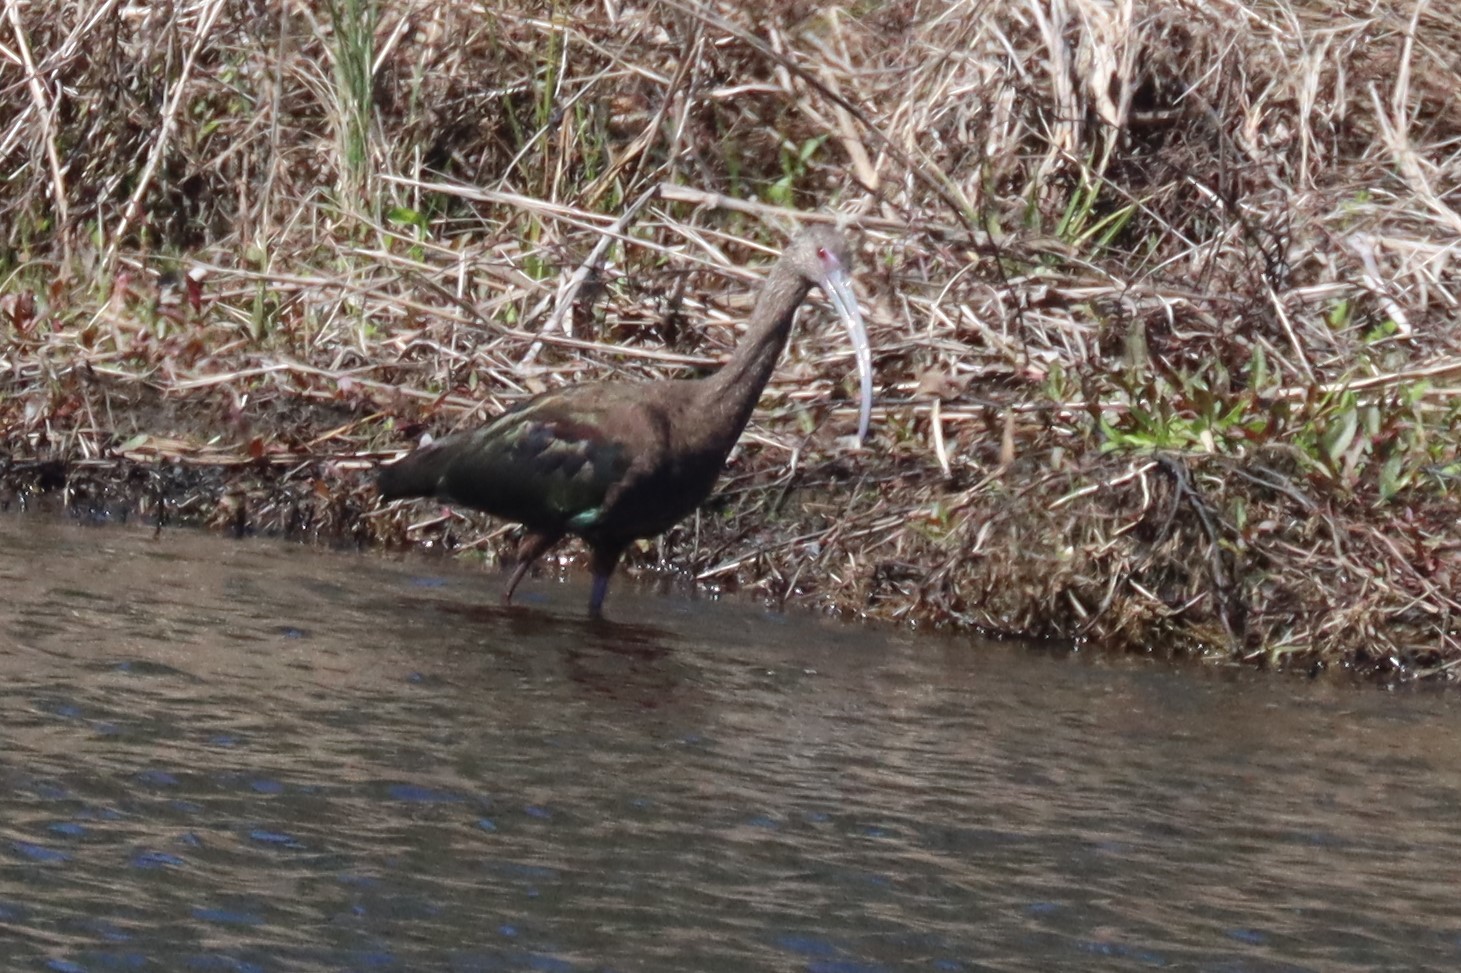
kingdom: Animalia
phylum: Chordata
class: Aves
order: Pelecaniformes
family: Threskiornithidae
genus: Plegadis
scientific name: Plegadis chihi
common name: White-faced ibis
